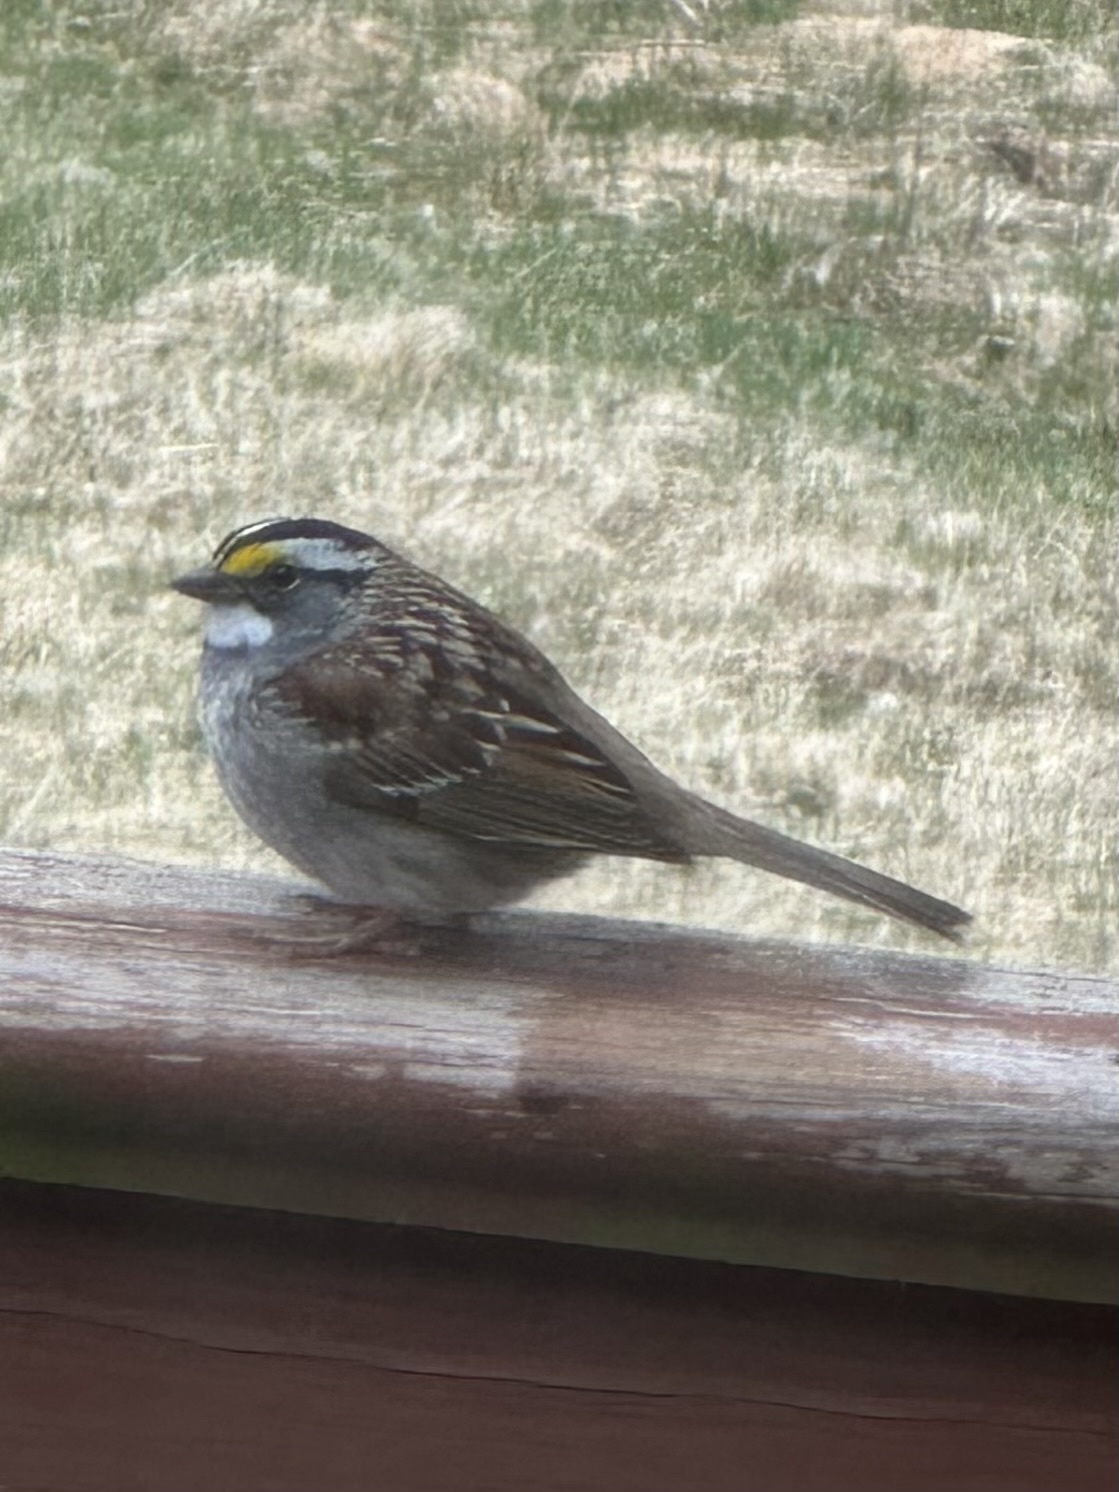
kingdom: Animalia
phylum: Chordata
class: Aves
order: Passeriformes
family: Passerellidae
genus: Zonotrichia
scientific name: Zonotrichia albicollis
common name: White-throated sparrow
